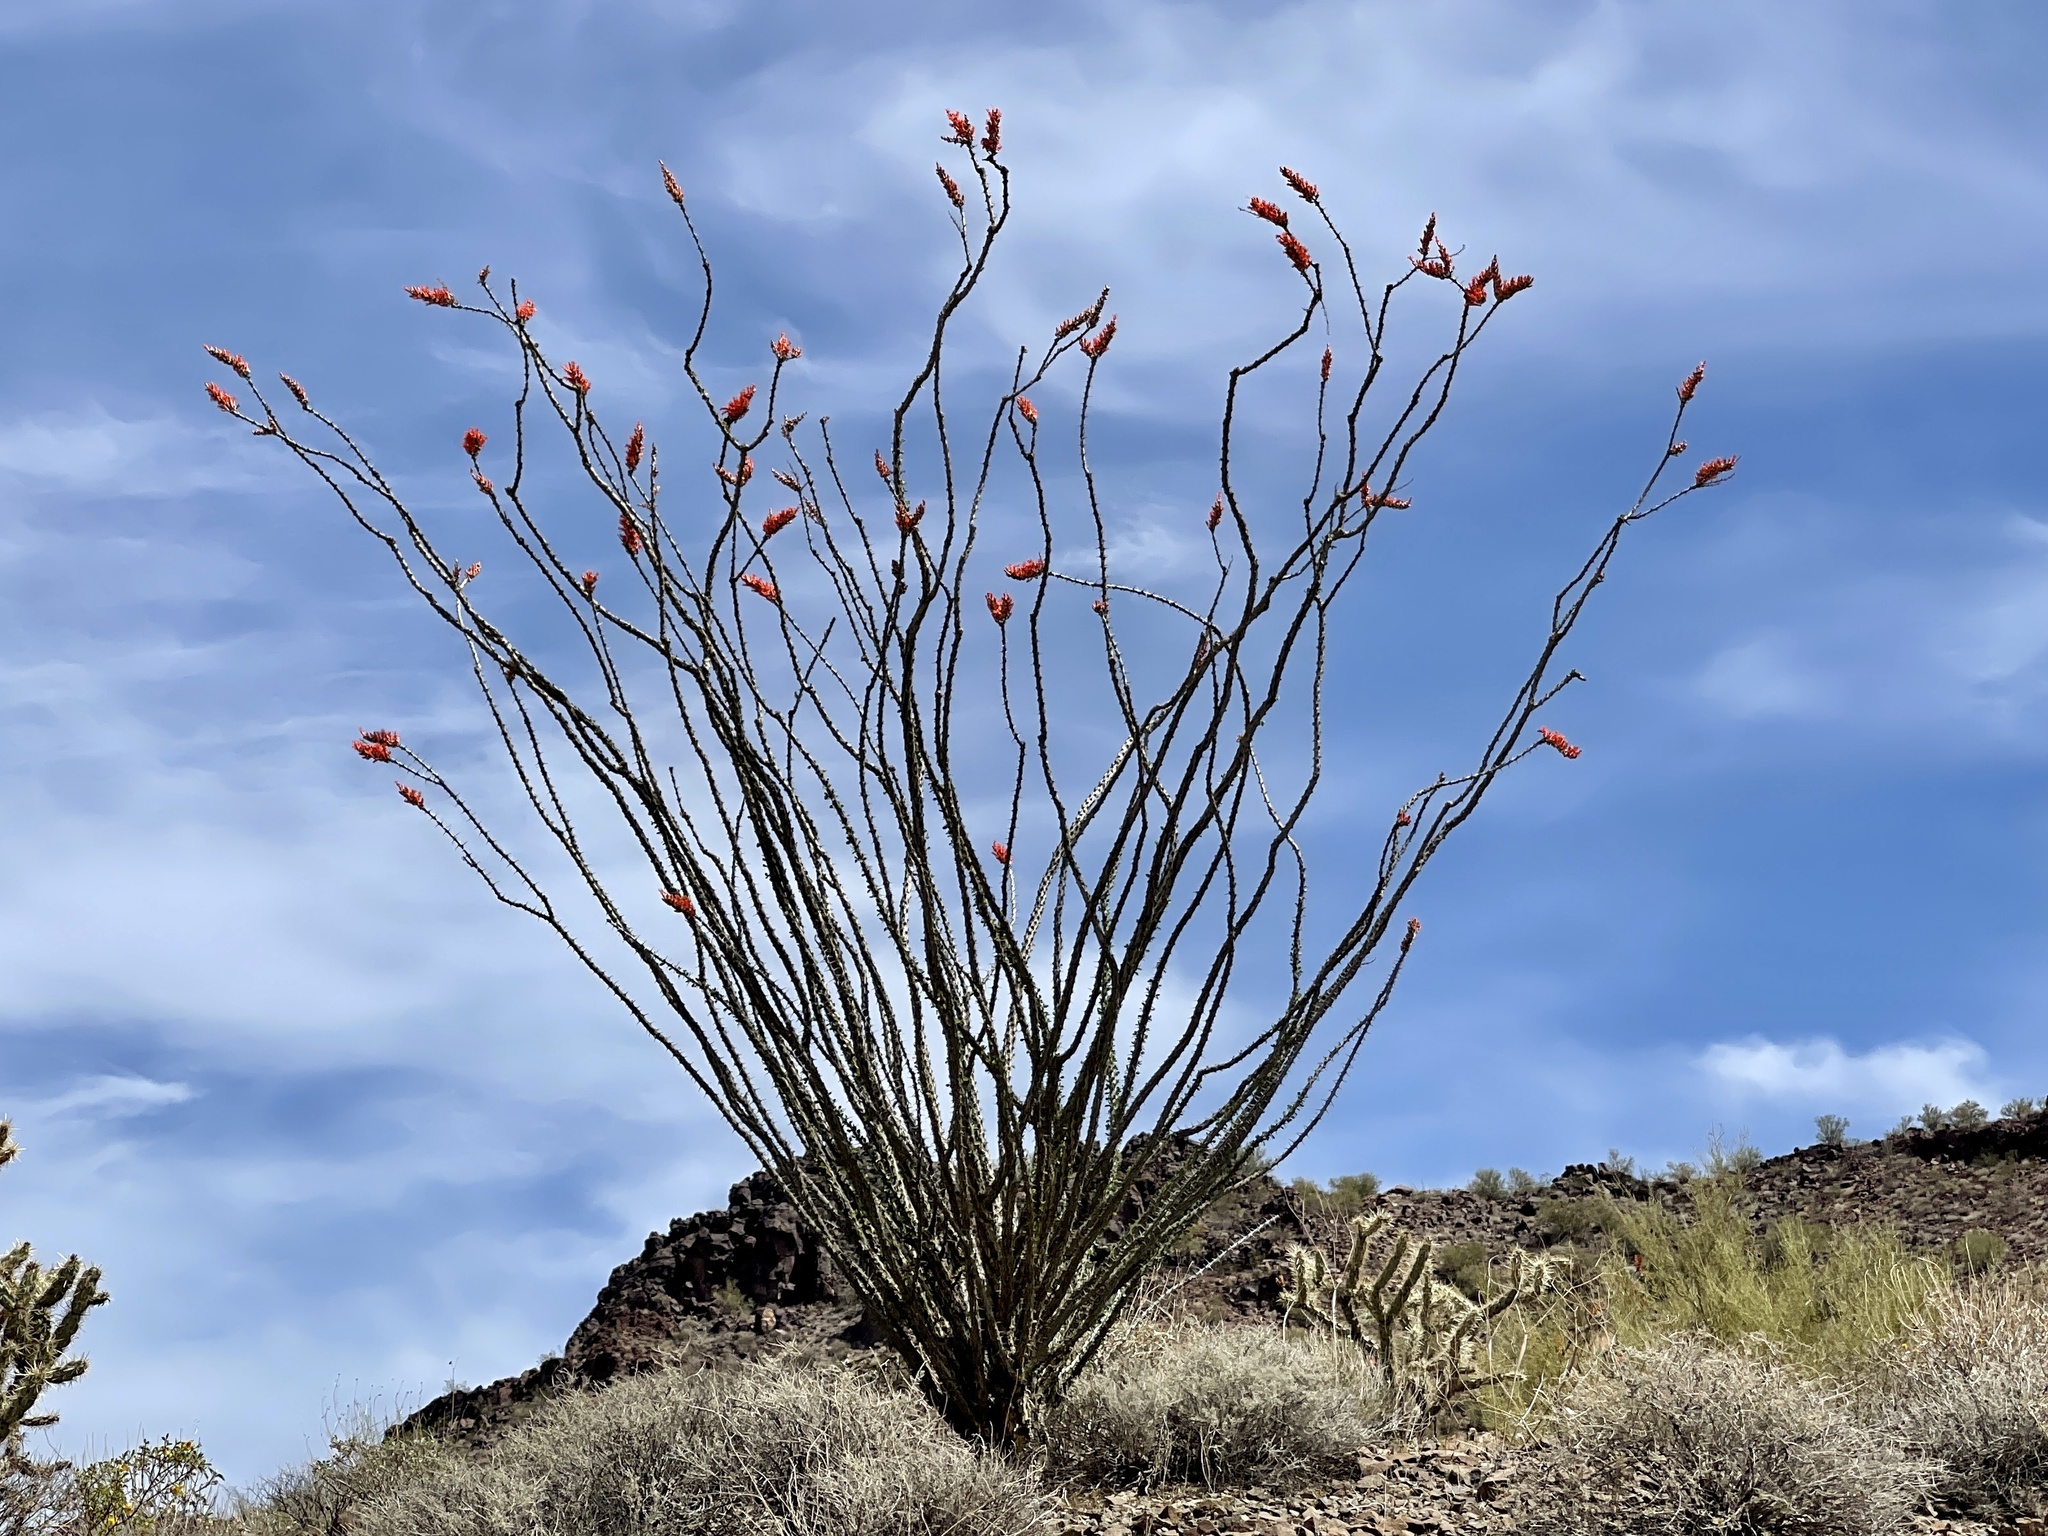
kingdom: Plantae
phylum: Tracheophyta
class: Magnoliopsida
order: Ericales
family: Fouquieriaceae
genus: Fouquieria
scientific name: Fouquieria splendens
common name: Vine-cactus
